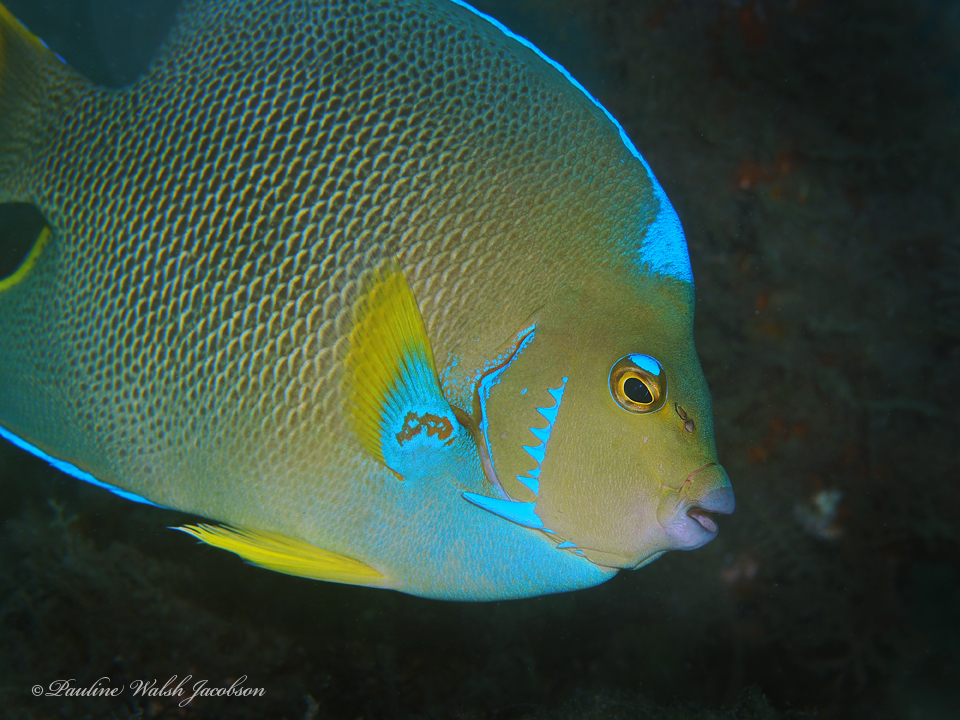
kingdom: Animalia
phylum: Chordata
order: Perciformes
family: Pomacanthidae
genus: Holacanthus
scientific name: Holacanthus bermudensis
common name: Blue angelfish
